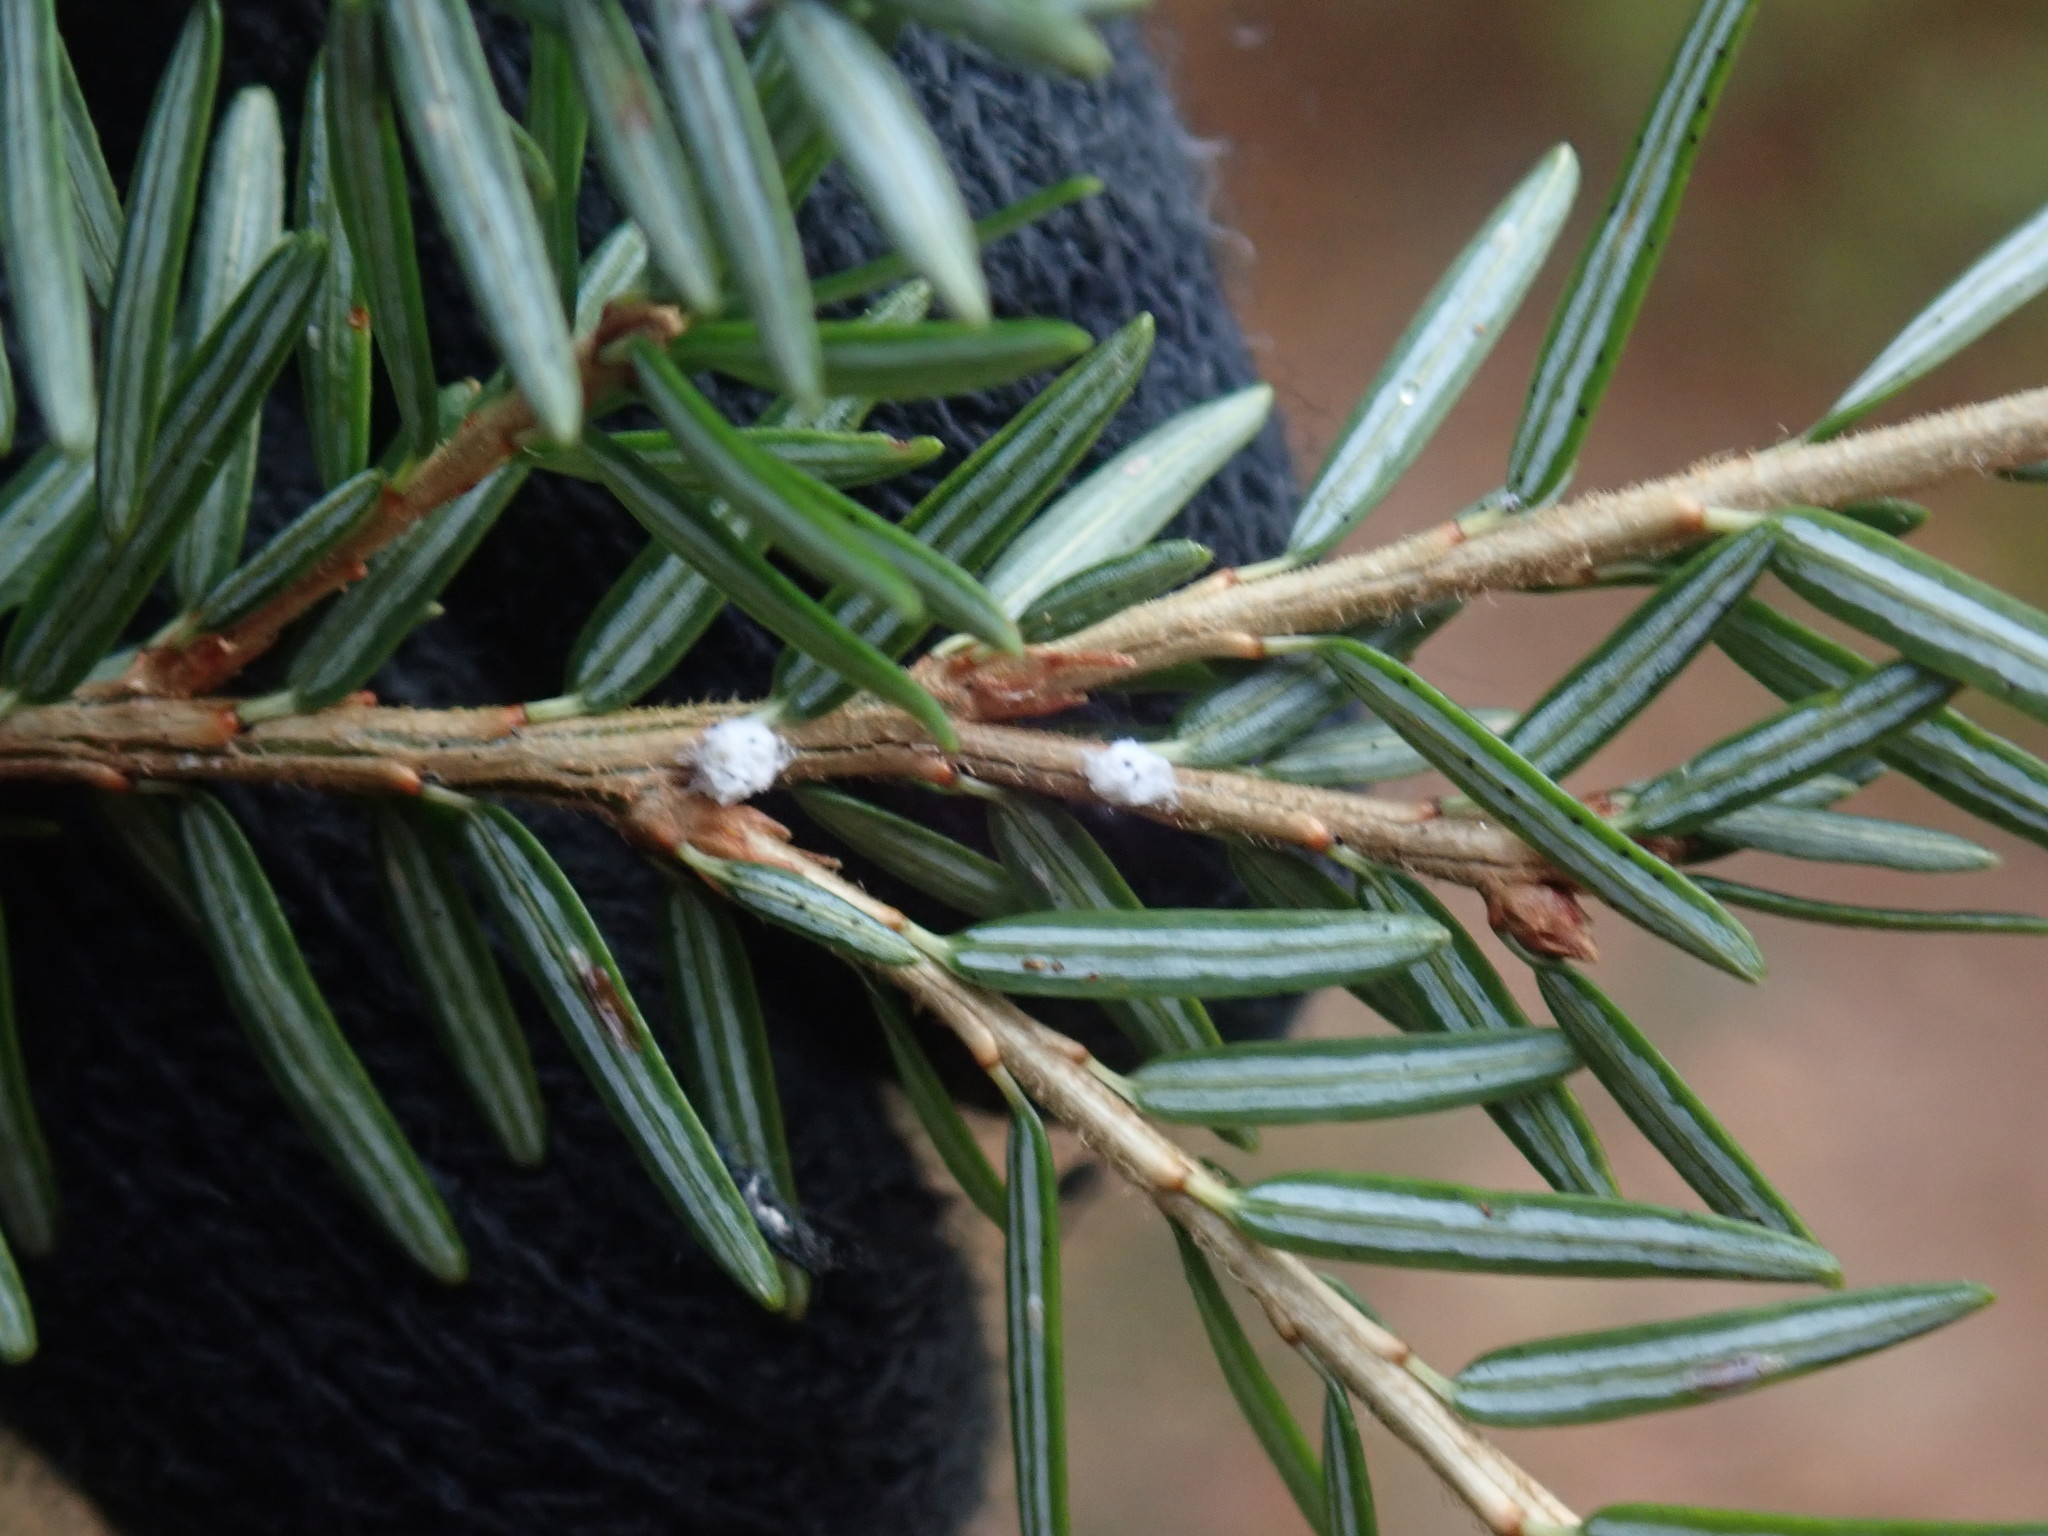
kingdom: Animalia
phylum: Arthropoda
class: Insecta
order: Hemiptera
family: Adelgidae
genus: Adelges
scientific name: Adelges tsugae
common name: Hemlock woolly adelgid
